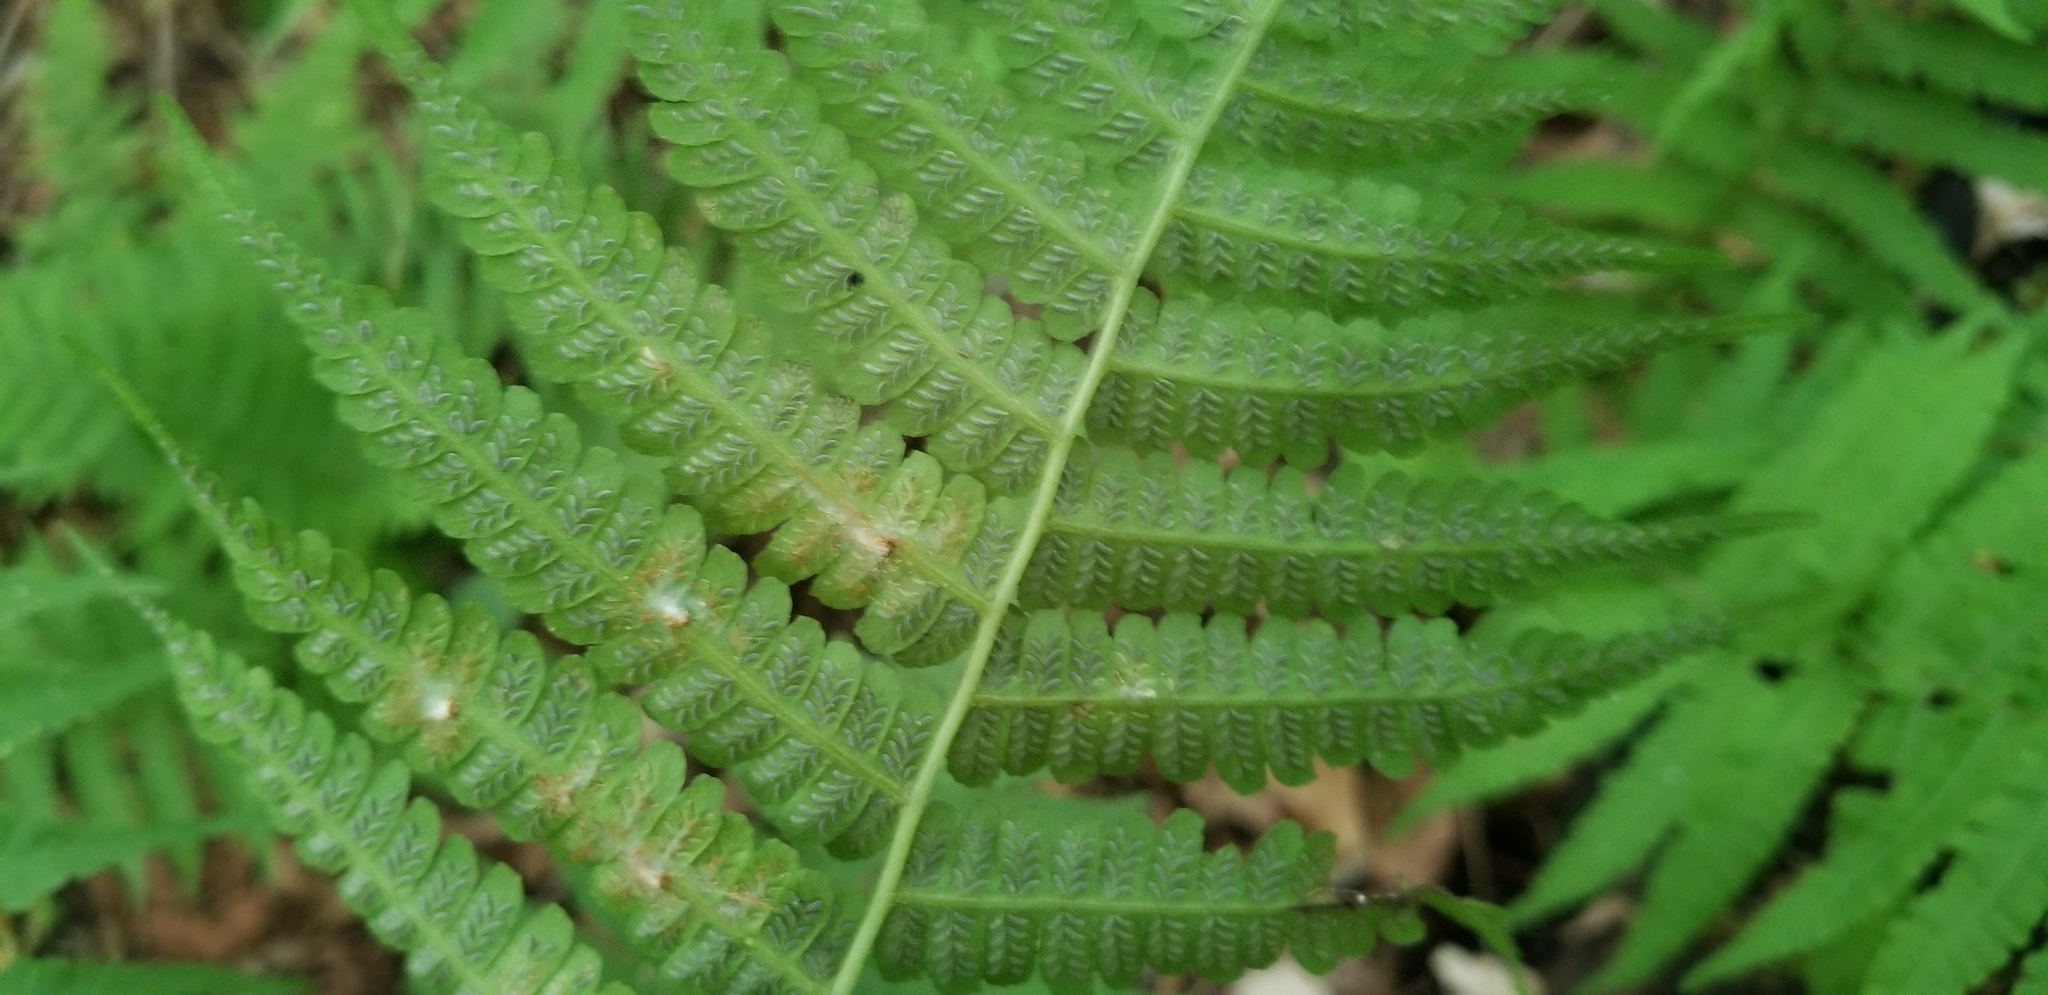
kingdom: Plantae
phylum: Tracheophyta
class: Polypodiopsida
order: Polypodiales
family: Athyriaceae
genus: Deparia
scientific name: Deparia acrostichoides
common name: Silver false spleenwort
